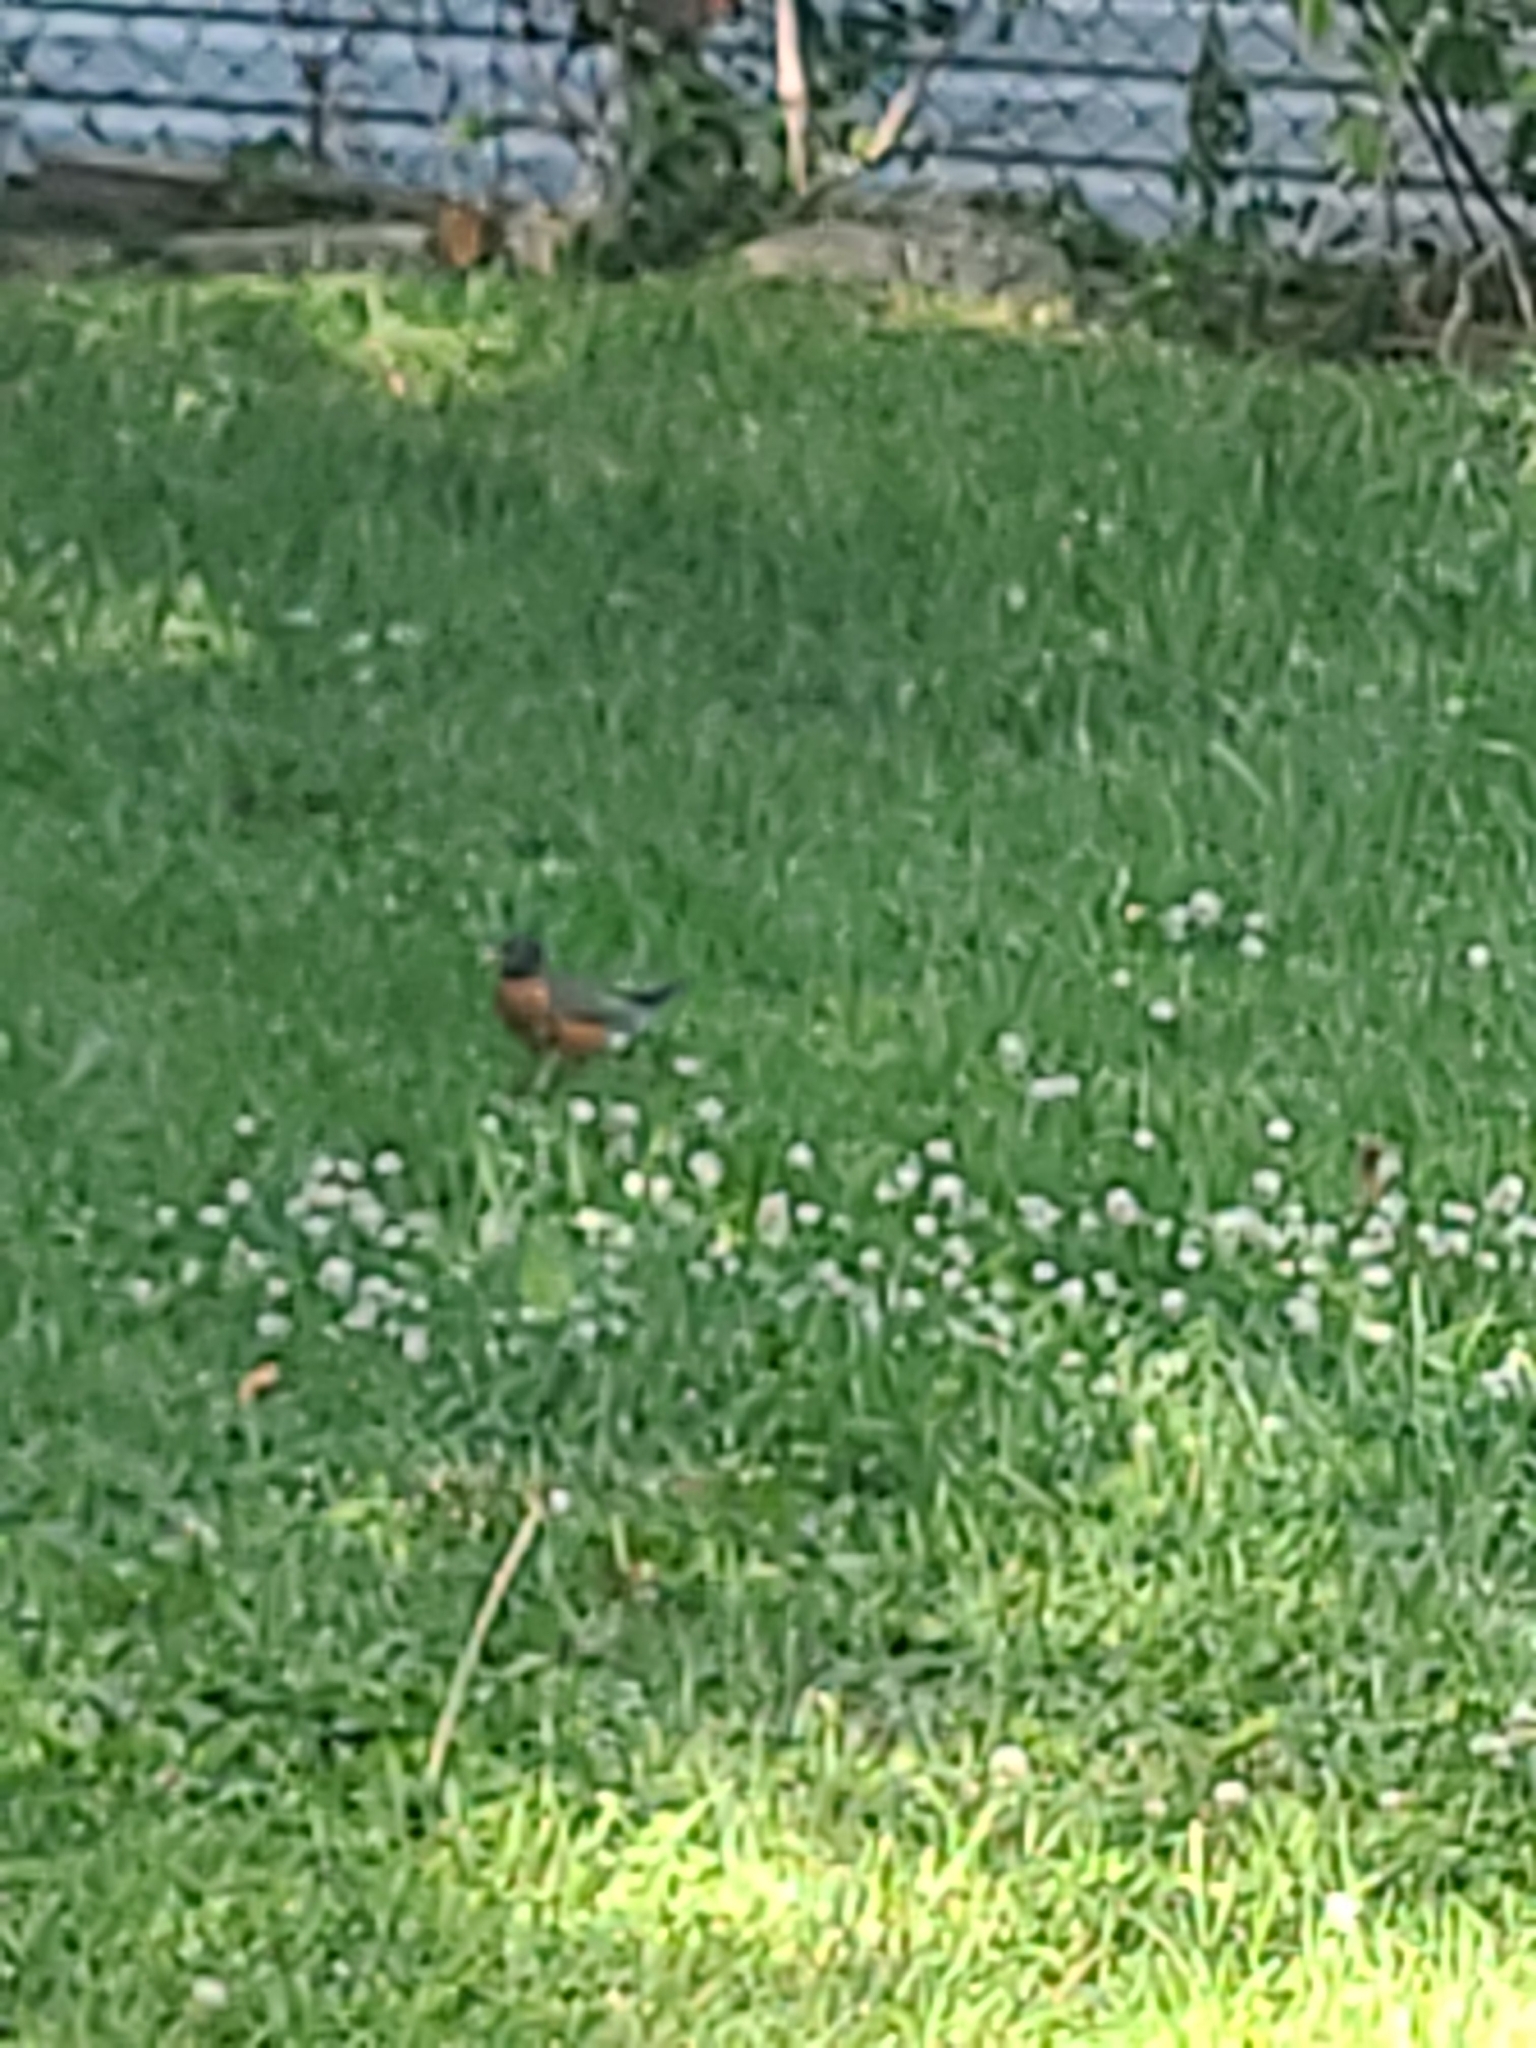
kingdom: Animalia
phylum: Chordata
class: Aves
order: Passeriformes
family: Turdidae
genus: Turdus
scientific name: Turdus migratorius
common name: American robin
